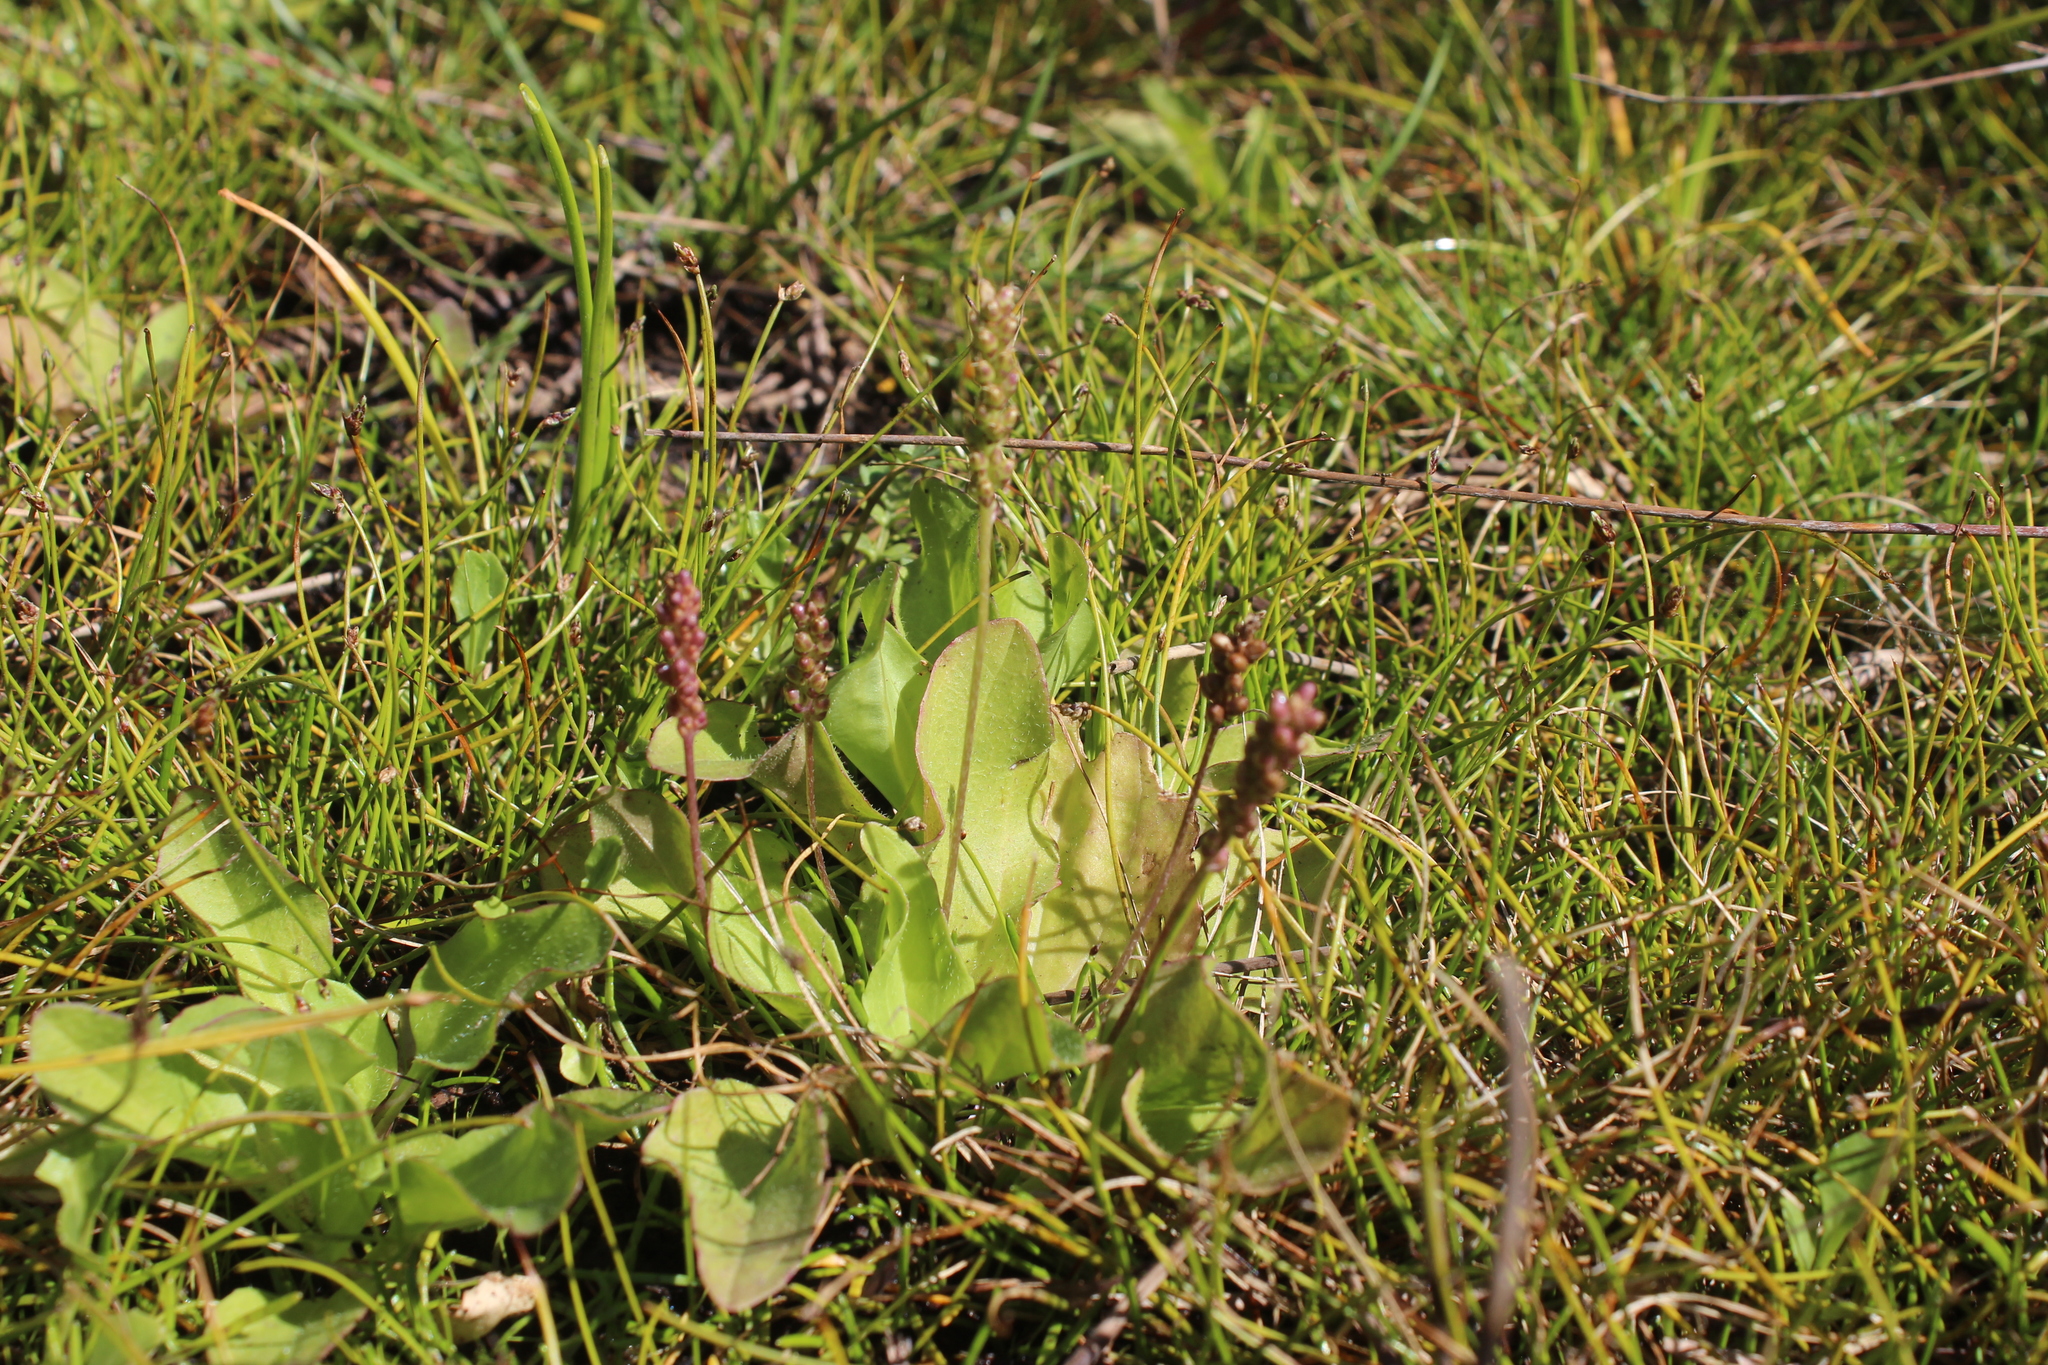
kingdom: Plantae
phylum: Tracheophyta
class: Magnoliopsida
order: Lamiales
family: Plantaginaceae
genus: Plantago
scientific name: Plantago australis
